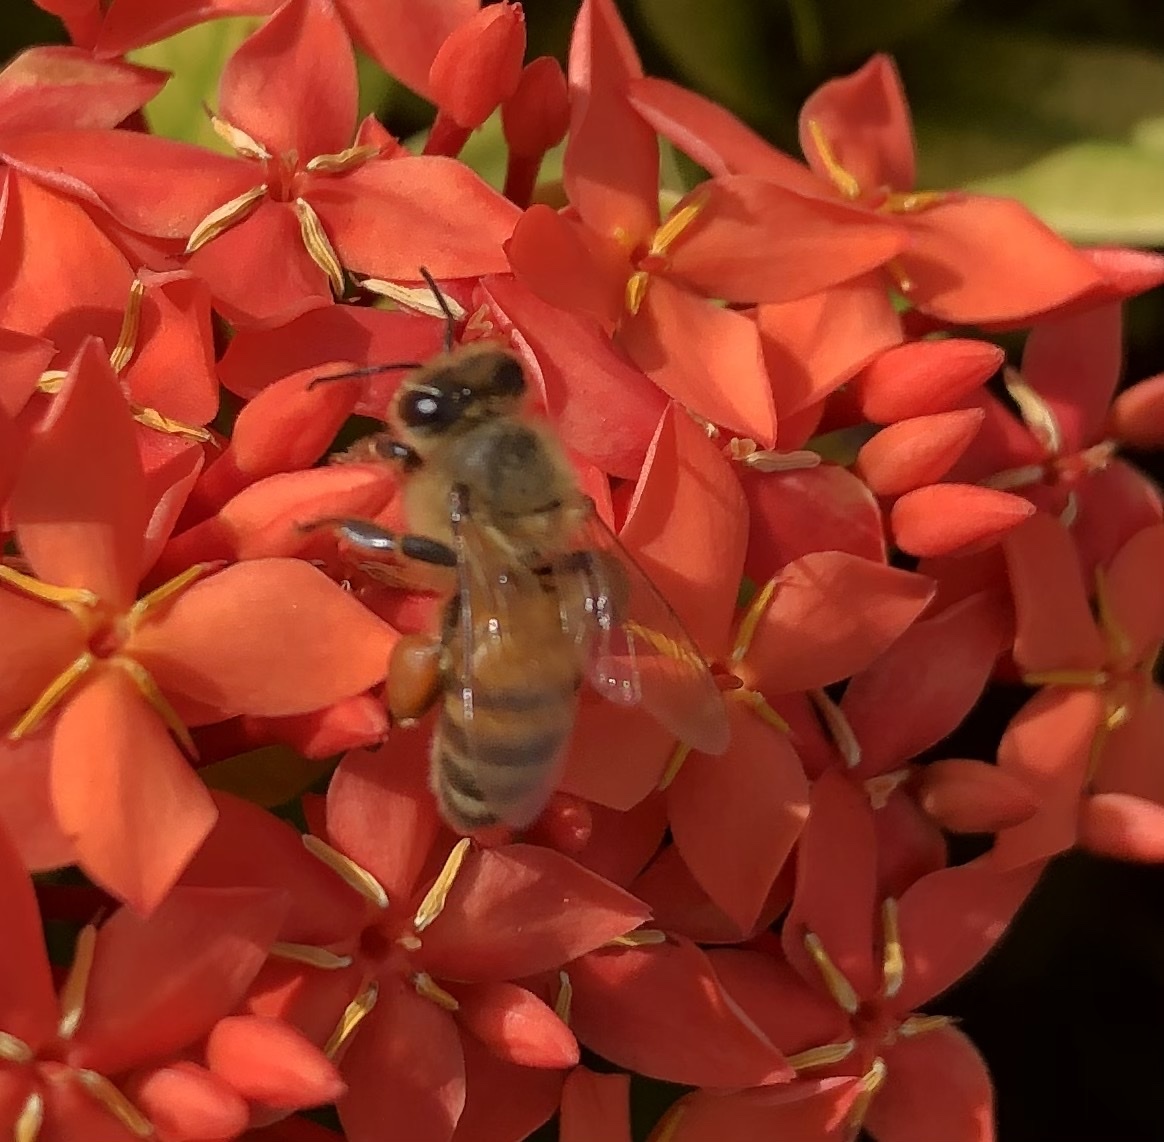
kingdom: Animalia
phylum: Arthropoda
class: Insecta
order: Hymenoptera
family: Apidae
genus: Apis
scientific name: Apis mellifera
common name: Honey bee
